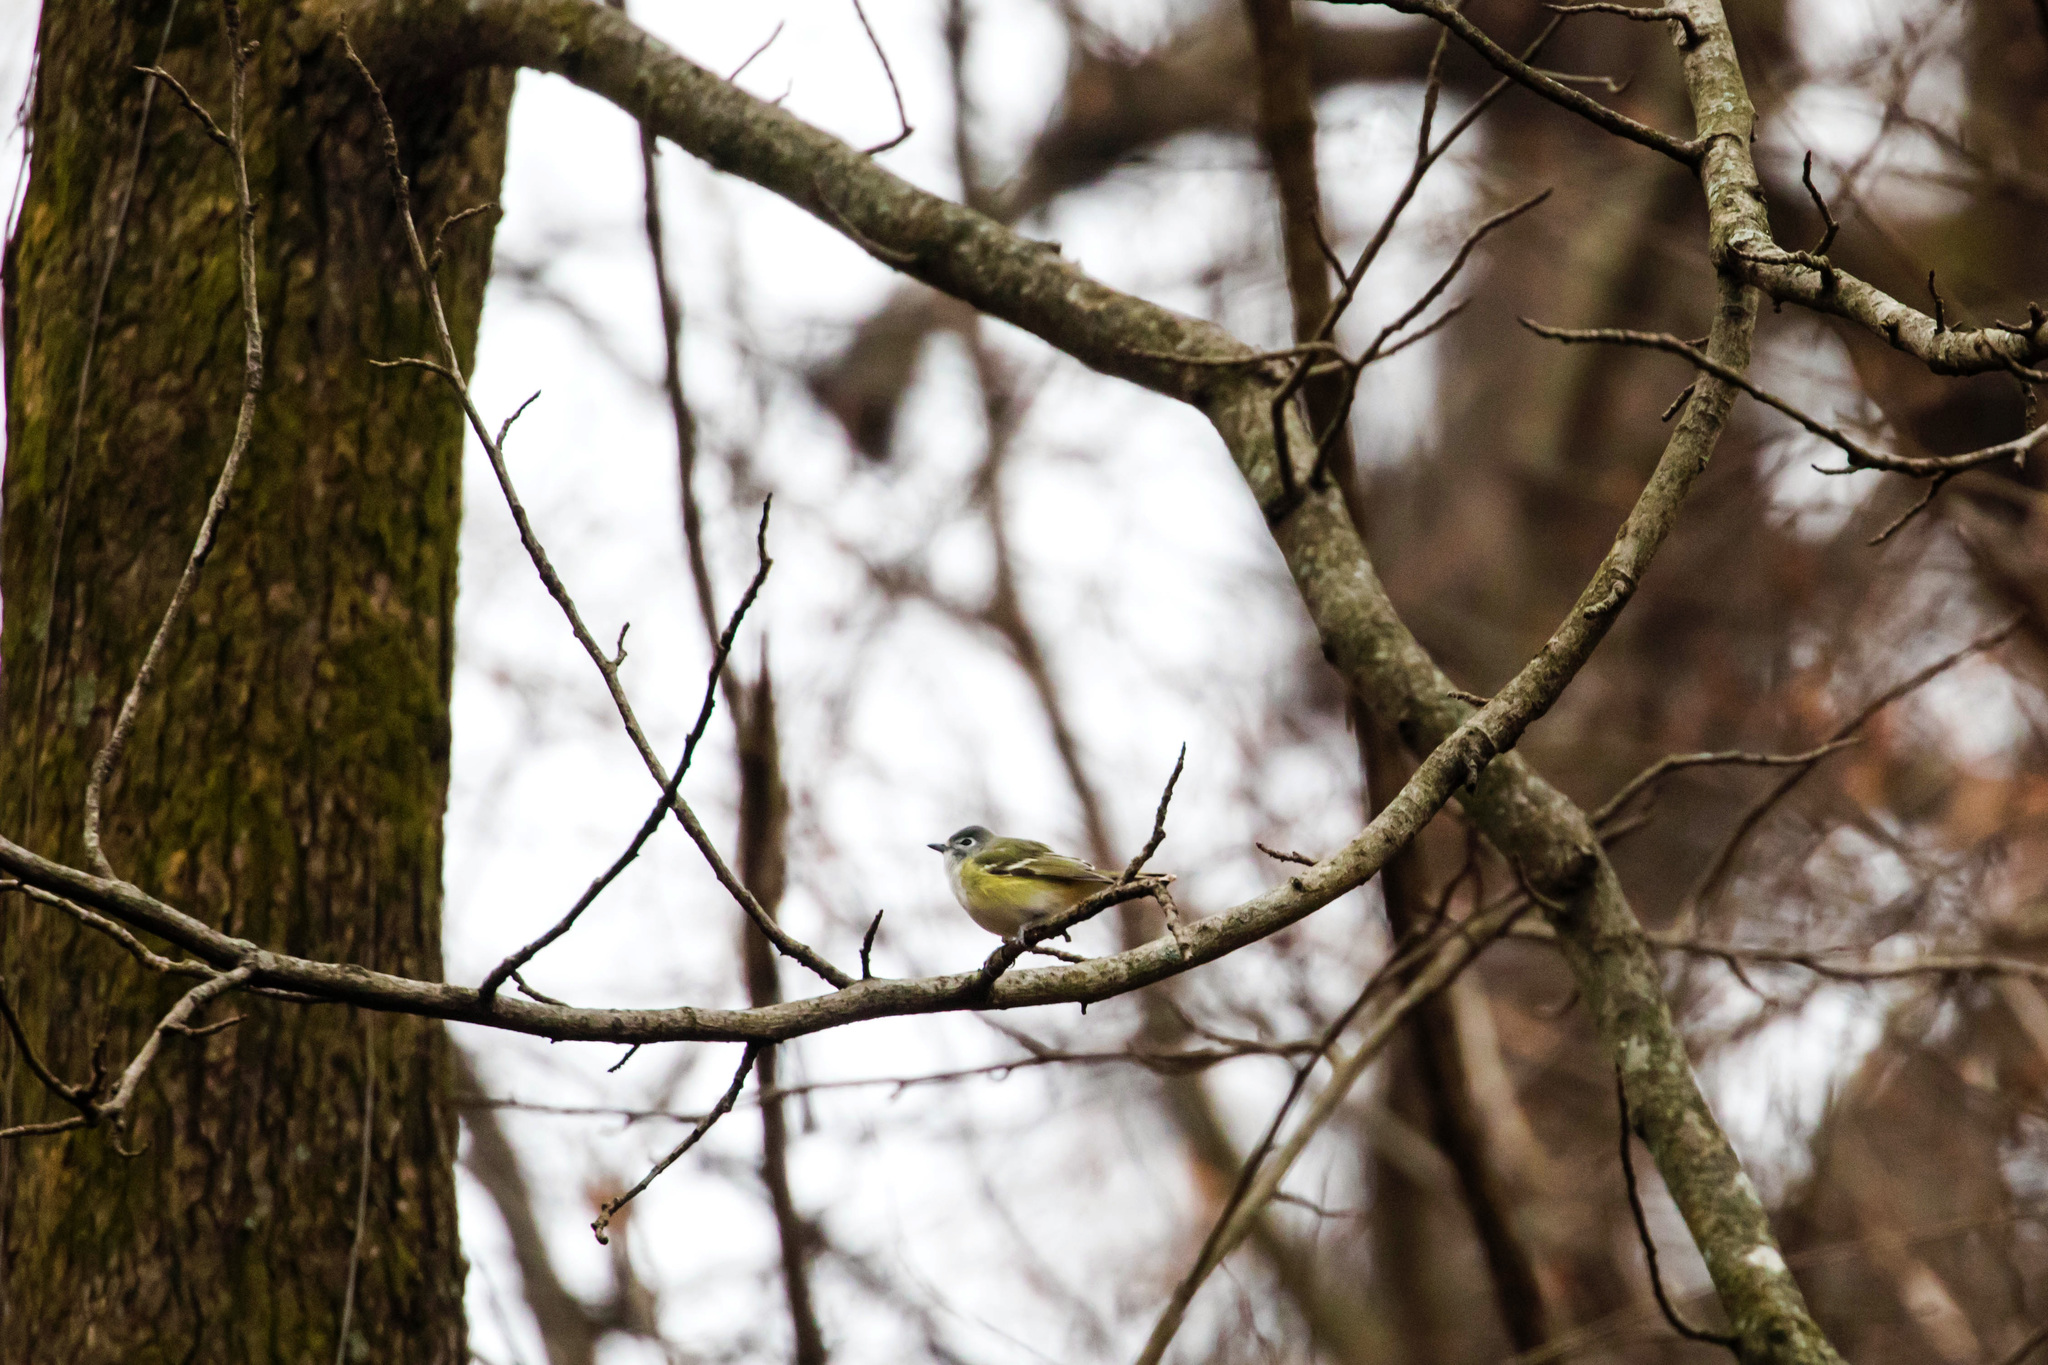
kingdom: Animalia
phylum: Chordata
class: Aves
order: Passeriformes
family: Vireonidae
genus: Vireo
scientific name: Vireo solitarius
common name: Blue-headed vireo
